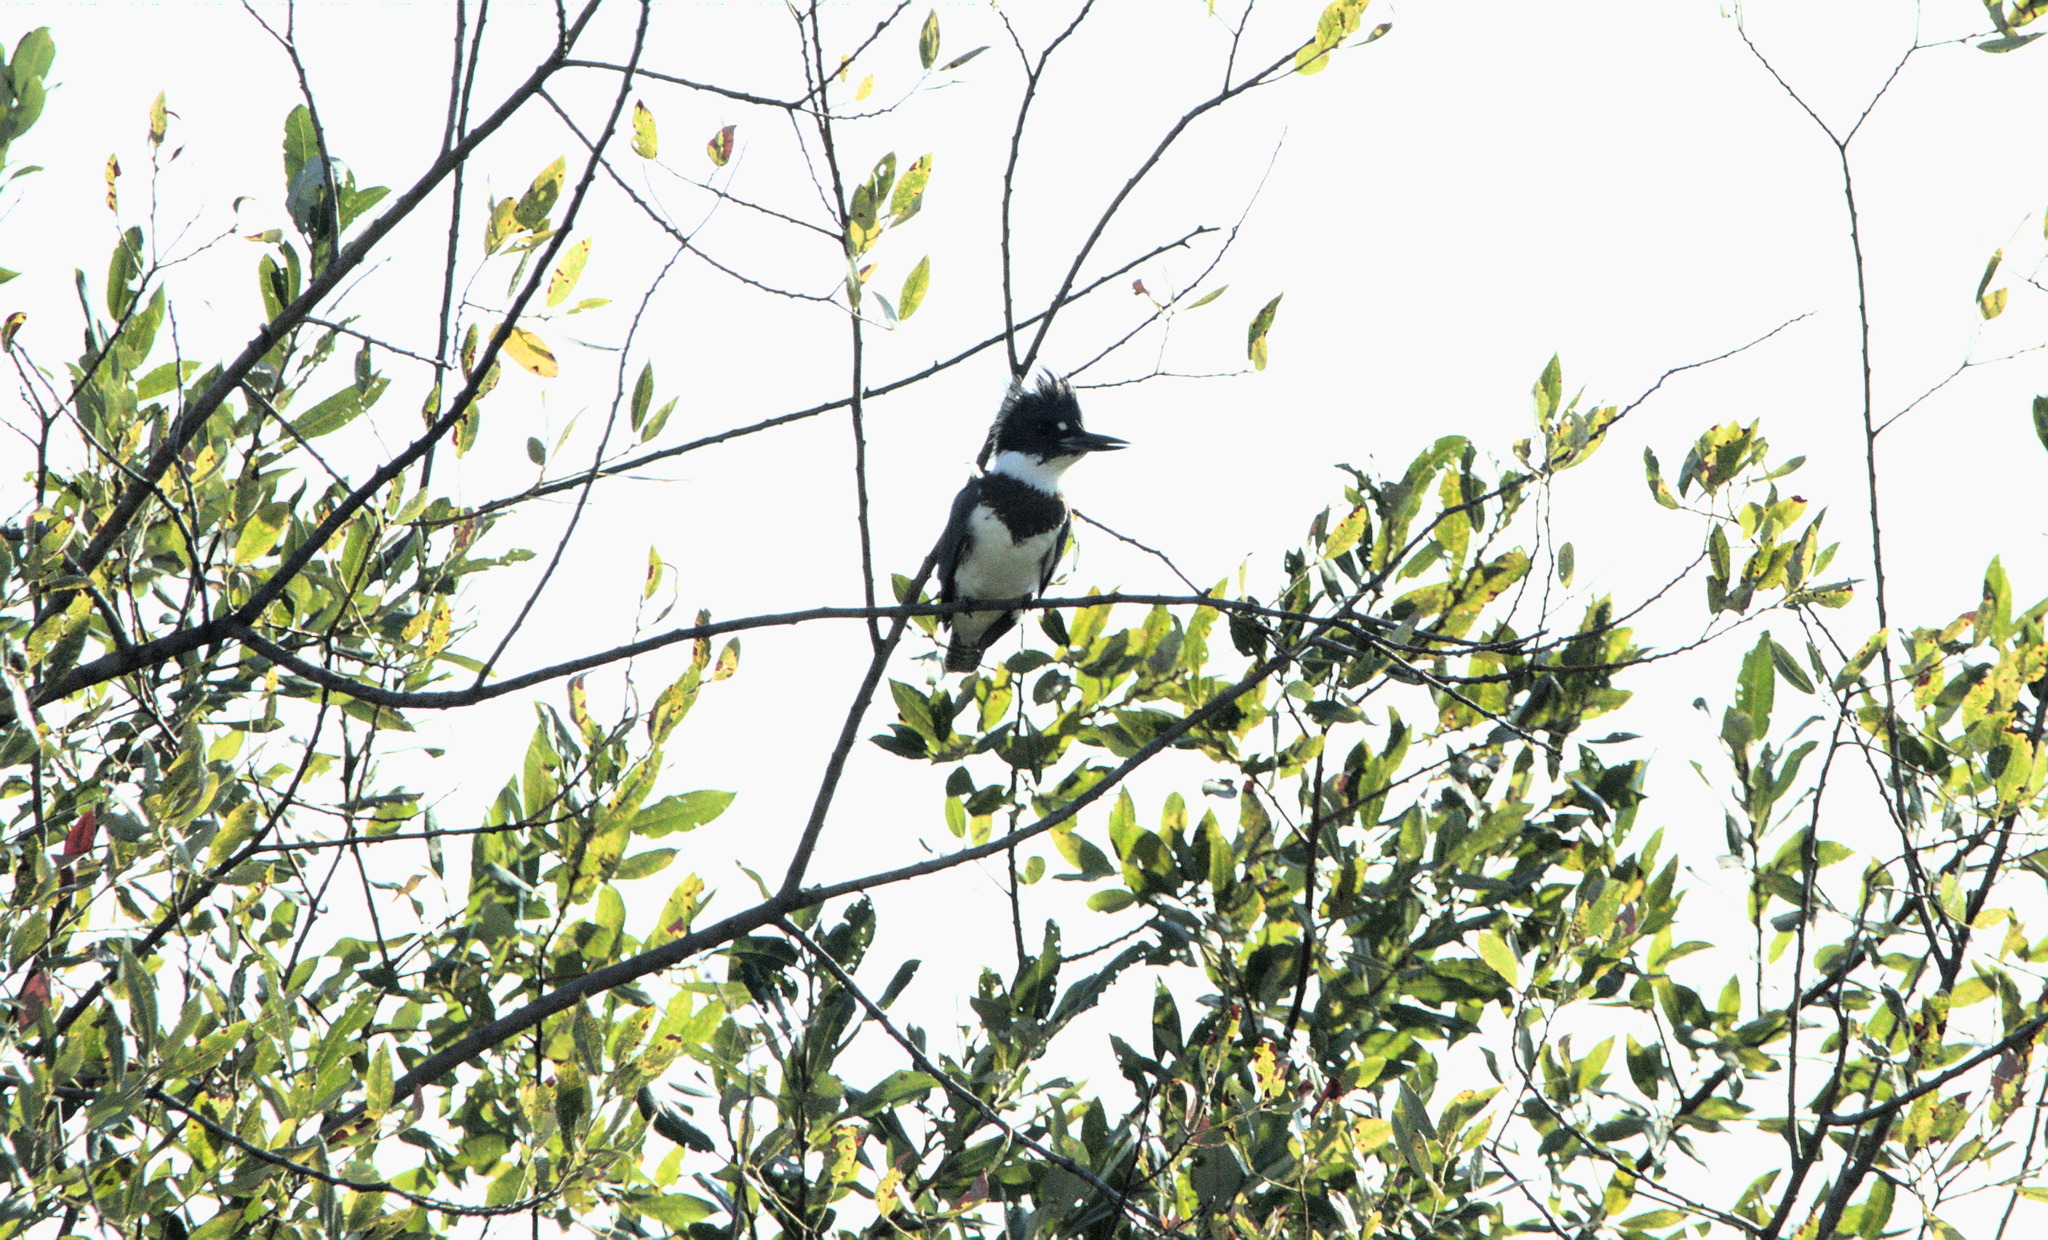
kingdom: Animalia
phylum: Chordata
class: Aves
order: Coraciiformes
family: Alcedinidae
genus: Megaceryle
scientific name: Megaceryle alcyon
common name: Belted kingfisher
